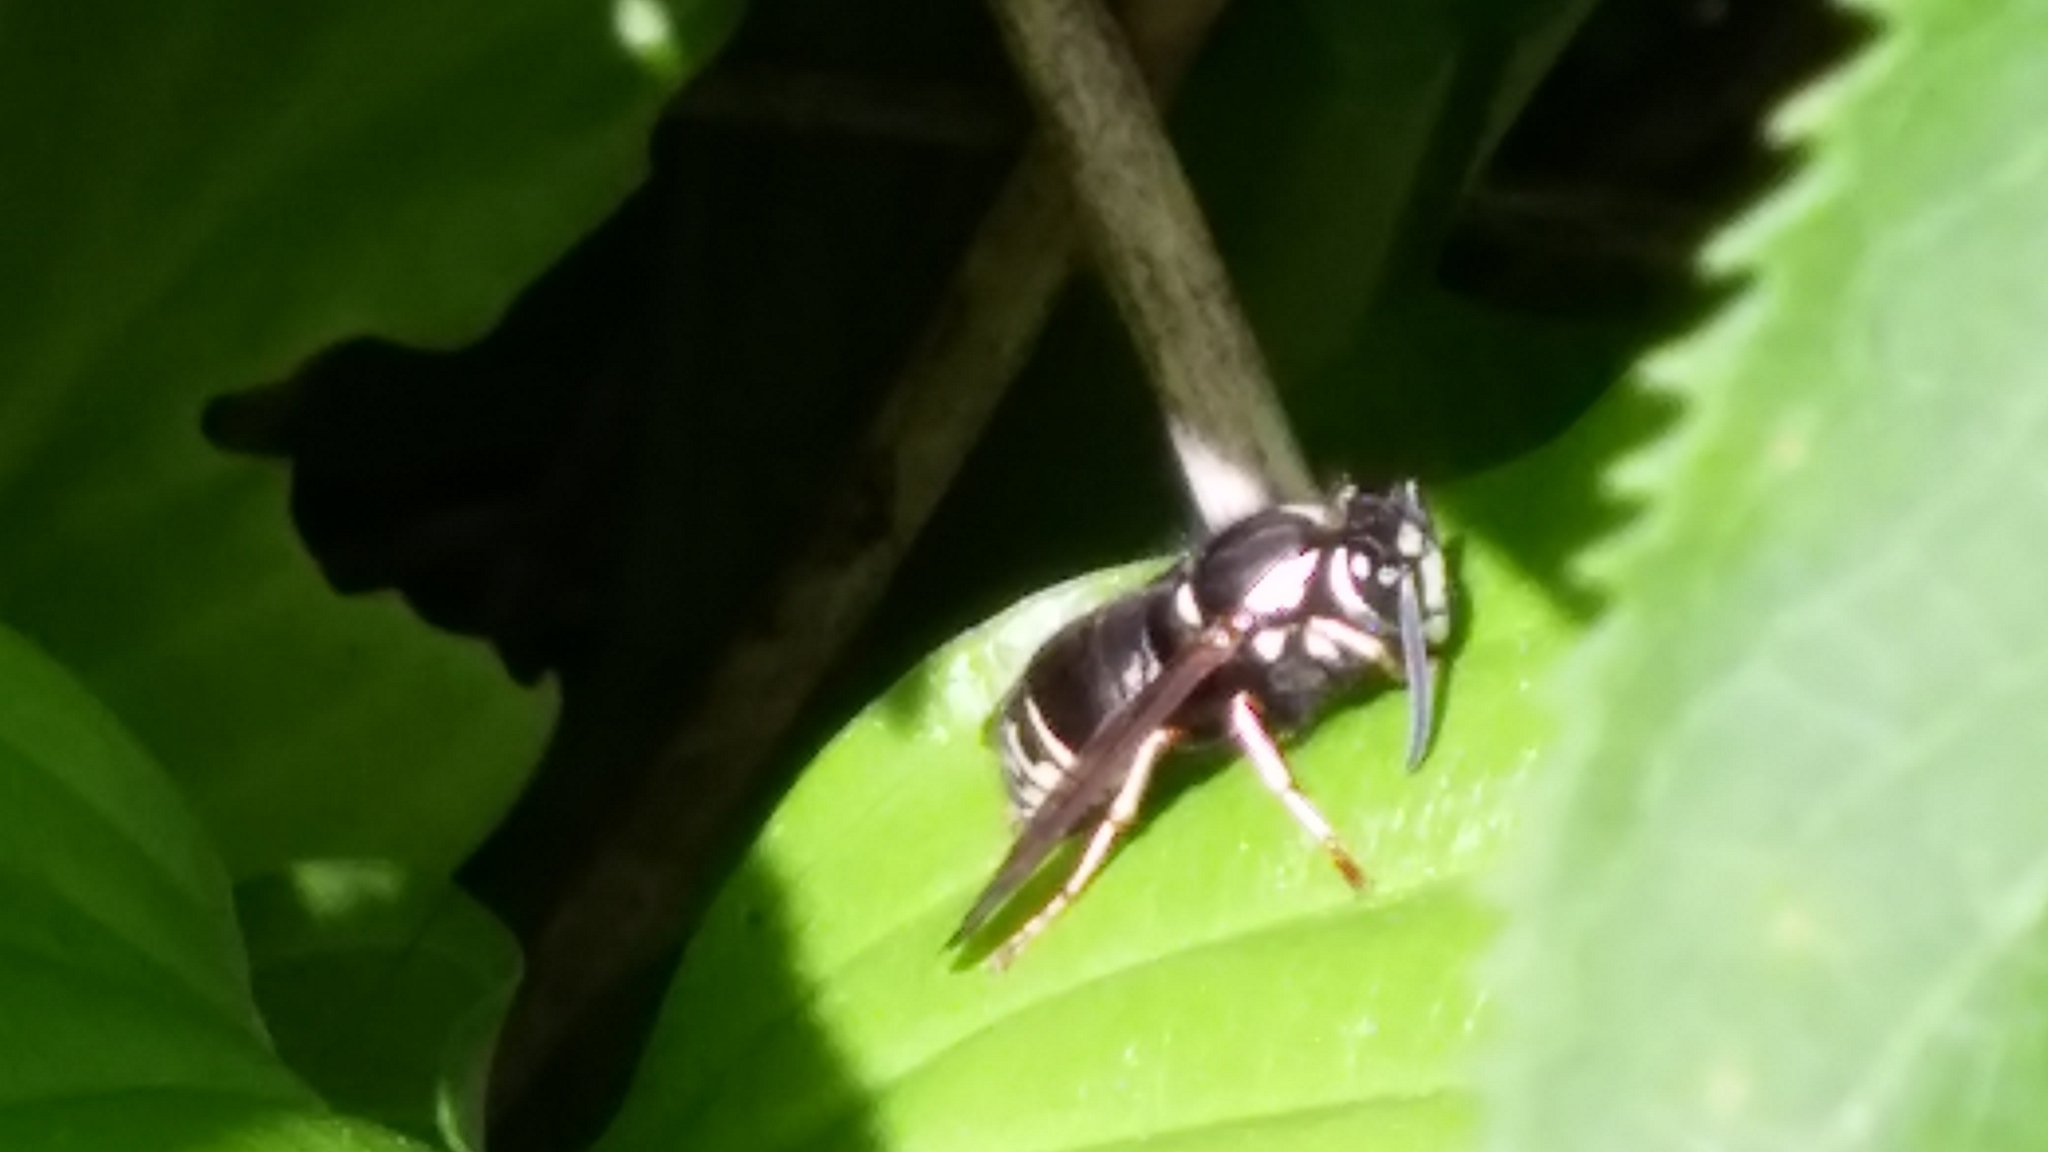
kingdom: Animalia
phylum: Arthropoda
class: Insecta
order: Hymenoptera
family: Vespidae
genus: Vespula
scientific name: Vespula consobrina
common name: Blackjacket
